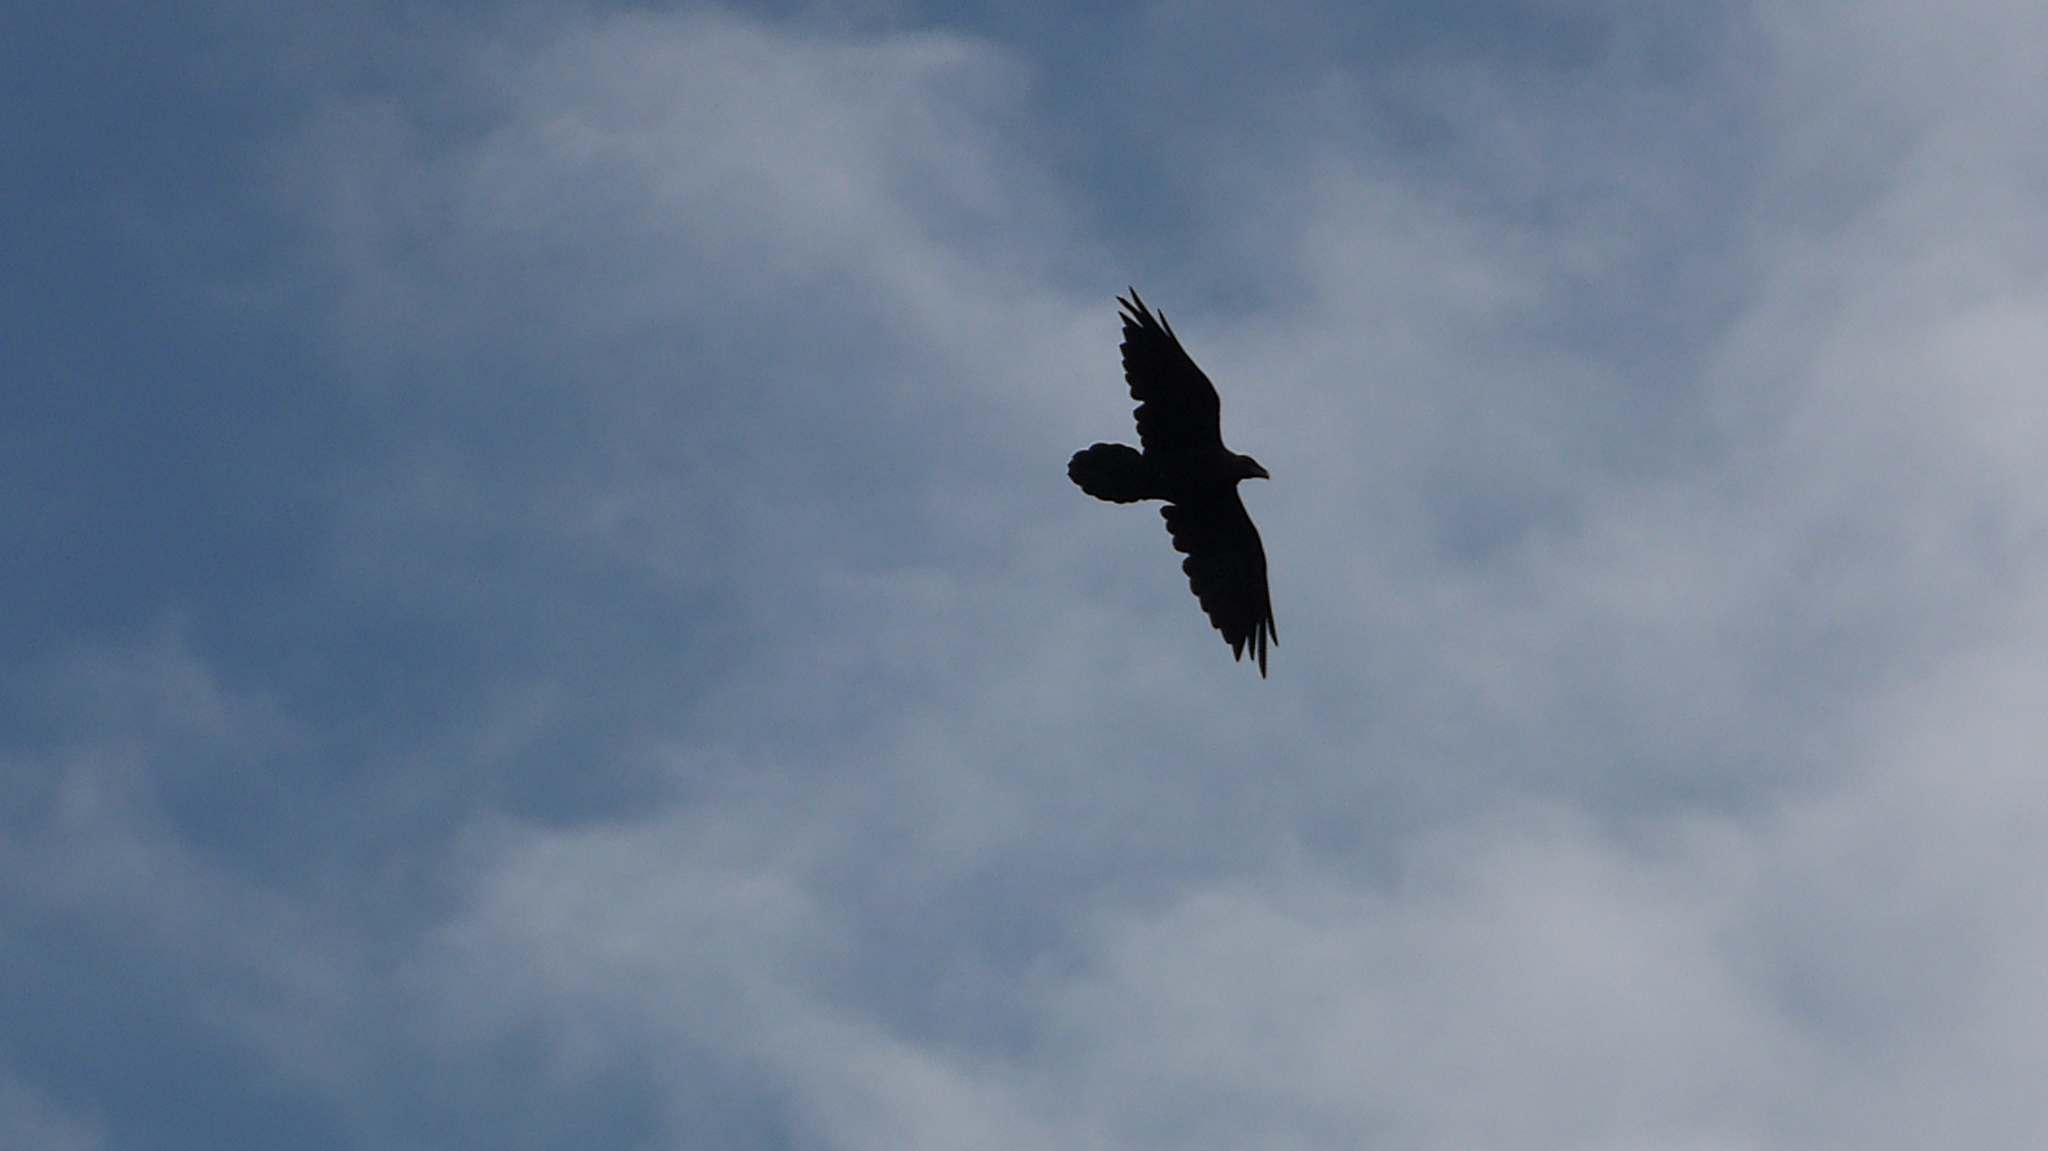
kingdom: Animalia
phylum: Chordata
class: Aves
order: Passeriformes
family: Corvidae
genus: Corvus
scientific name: Corvus corax
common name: Common raven
